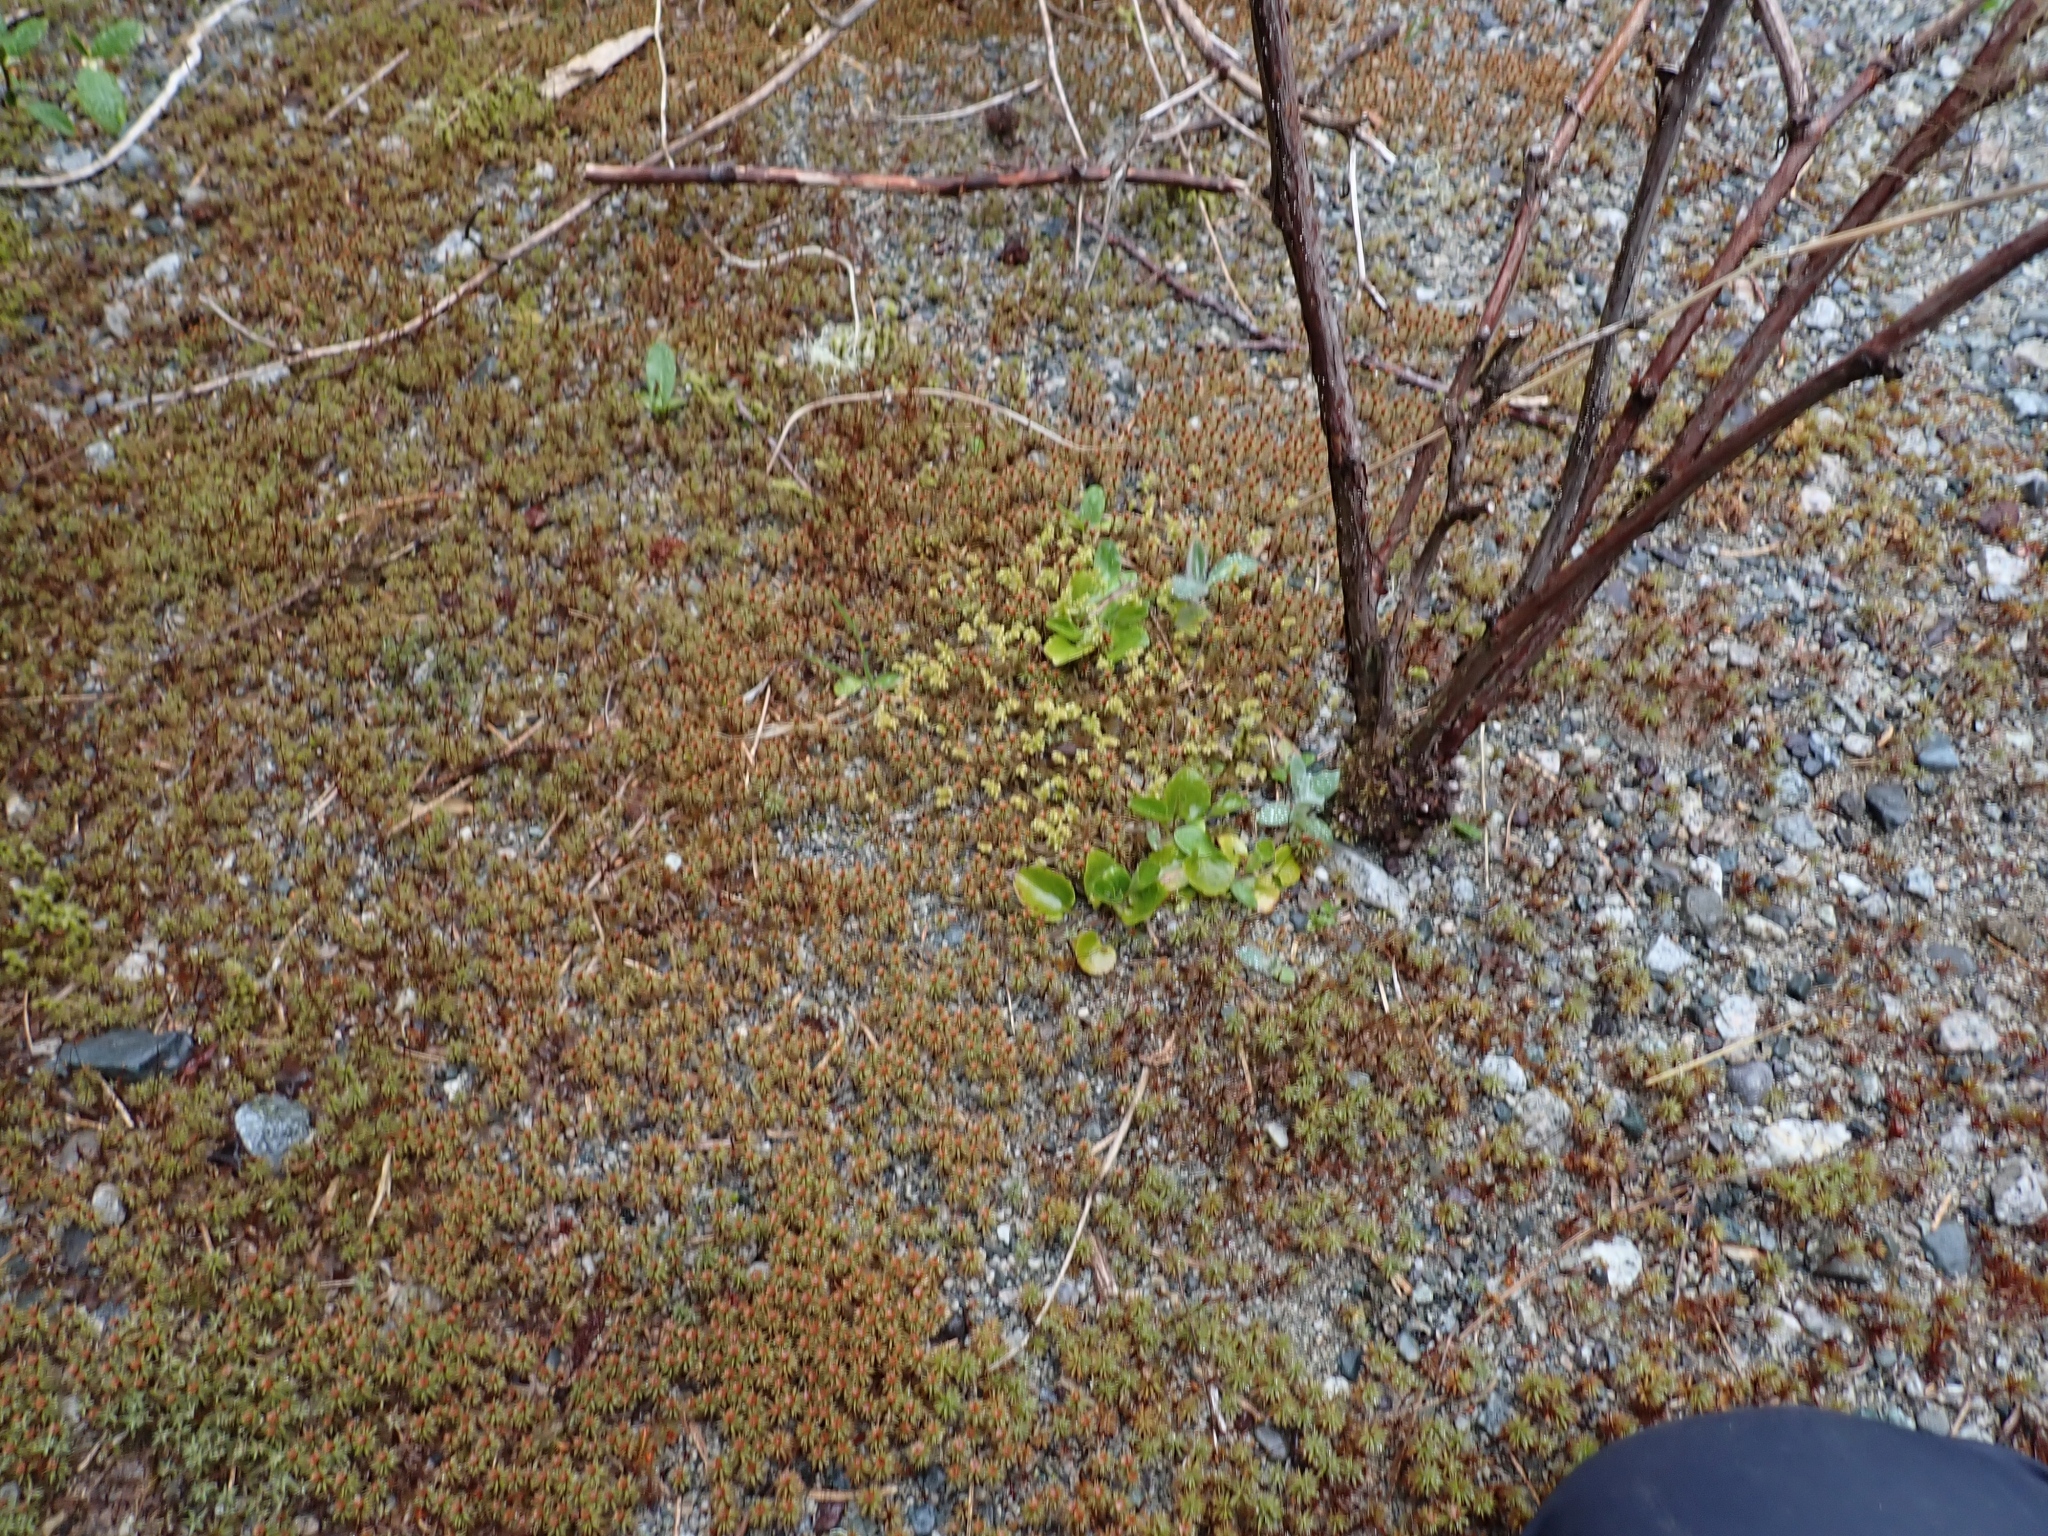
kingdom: Plantae
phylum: Bryophyta
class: Bryopsida
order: Bryales
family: Mniaceae
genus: Leucolepis
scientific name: Leucolepis acanthoneura
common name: Leucolepis umbrella moss
